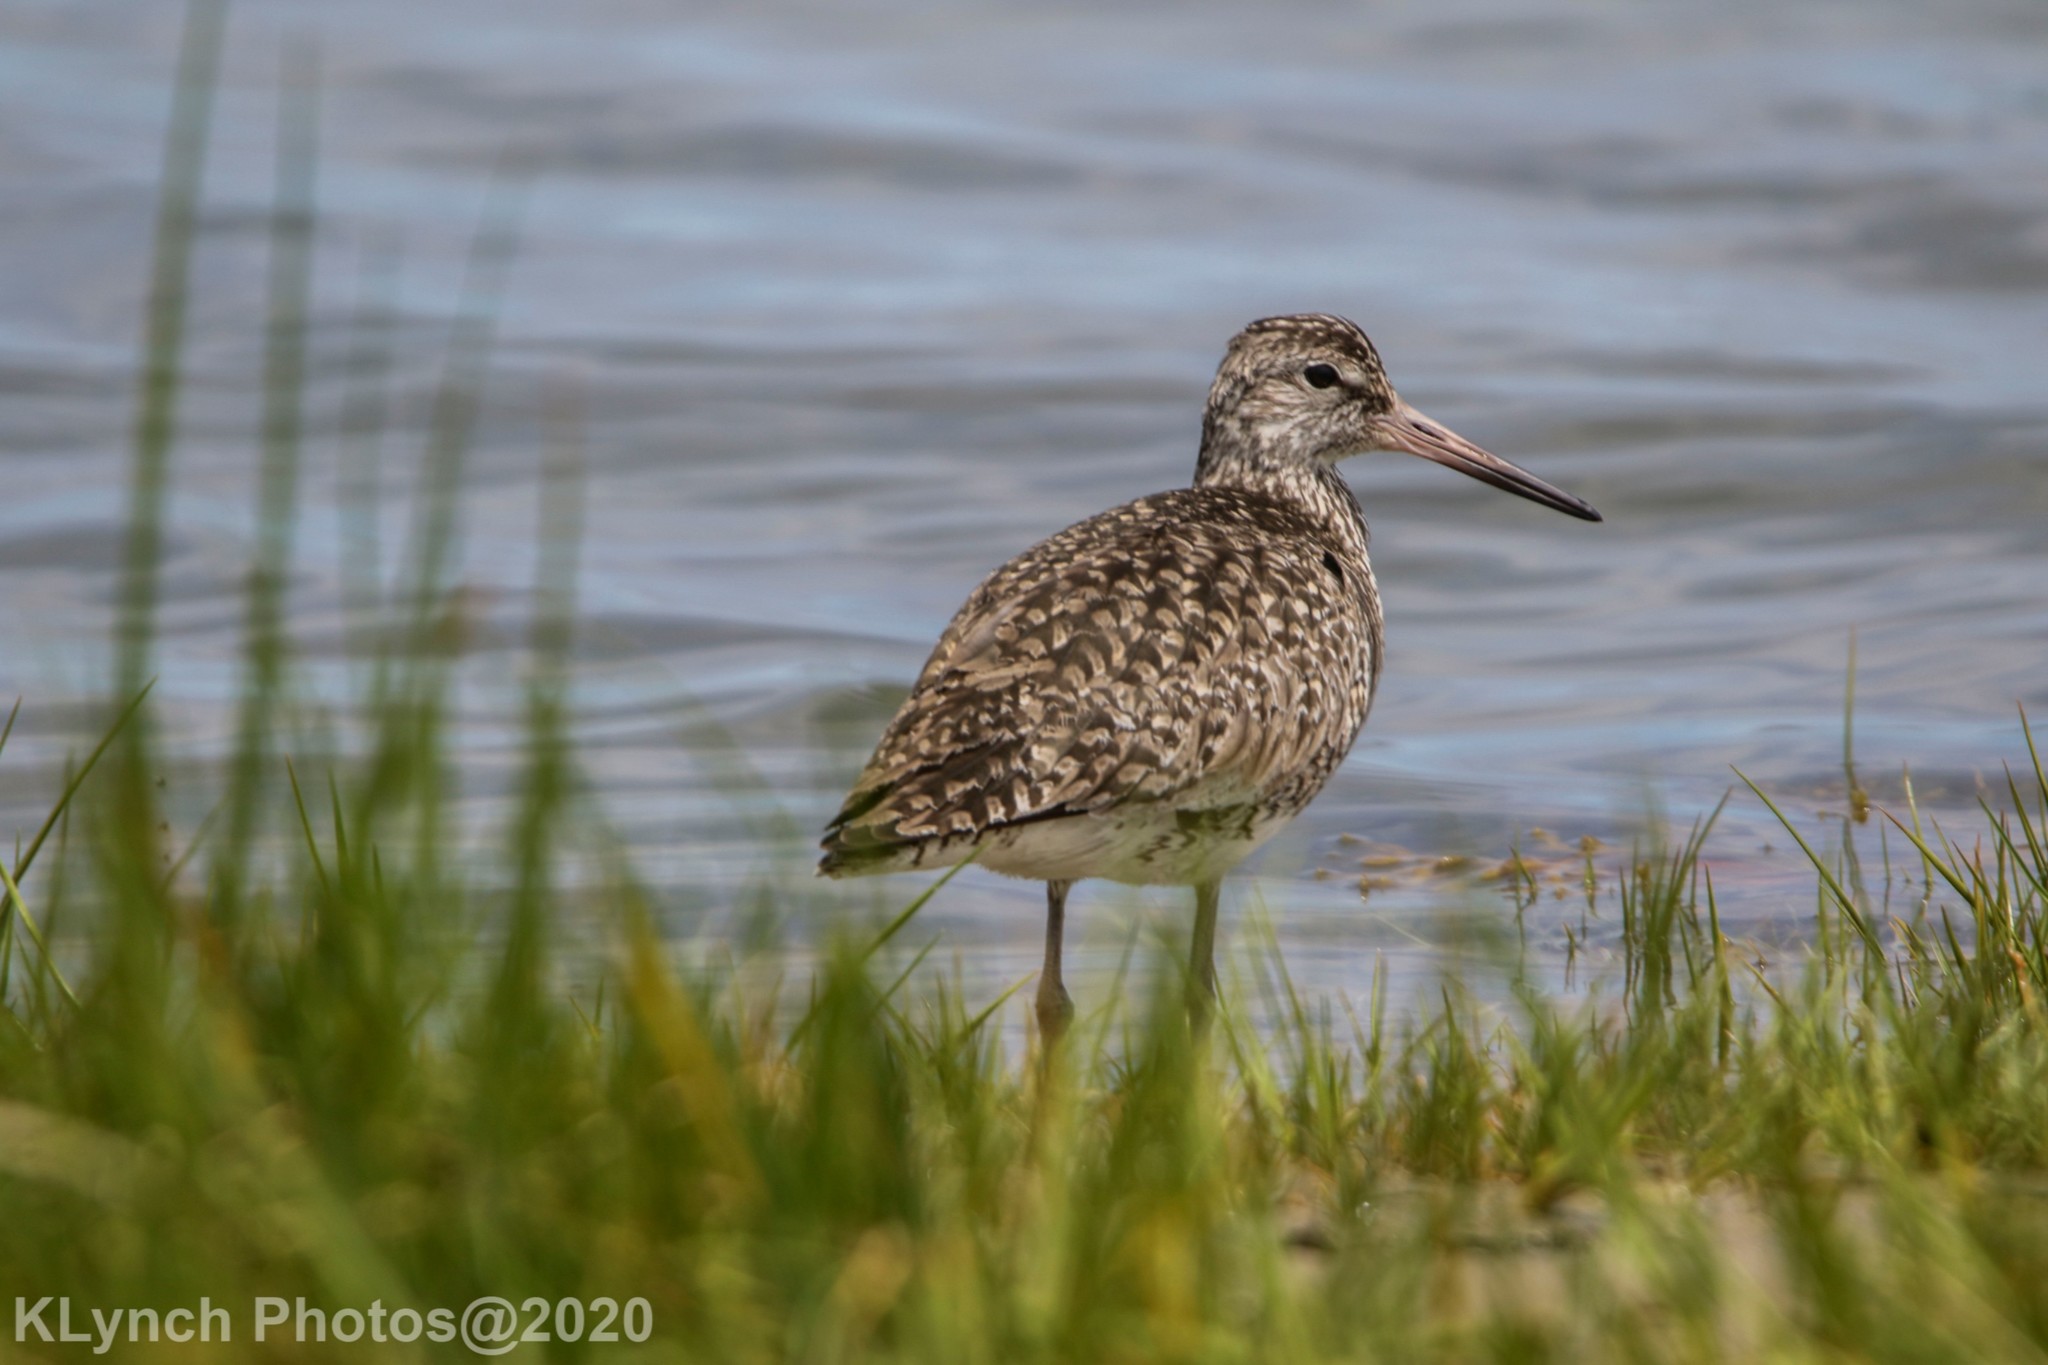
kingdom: Animalia
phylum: Chordata
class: Aves
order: Charadriiformes
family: Scolopacidae
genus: Tringa
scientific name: Tringa semipalmata
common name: Willet
